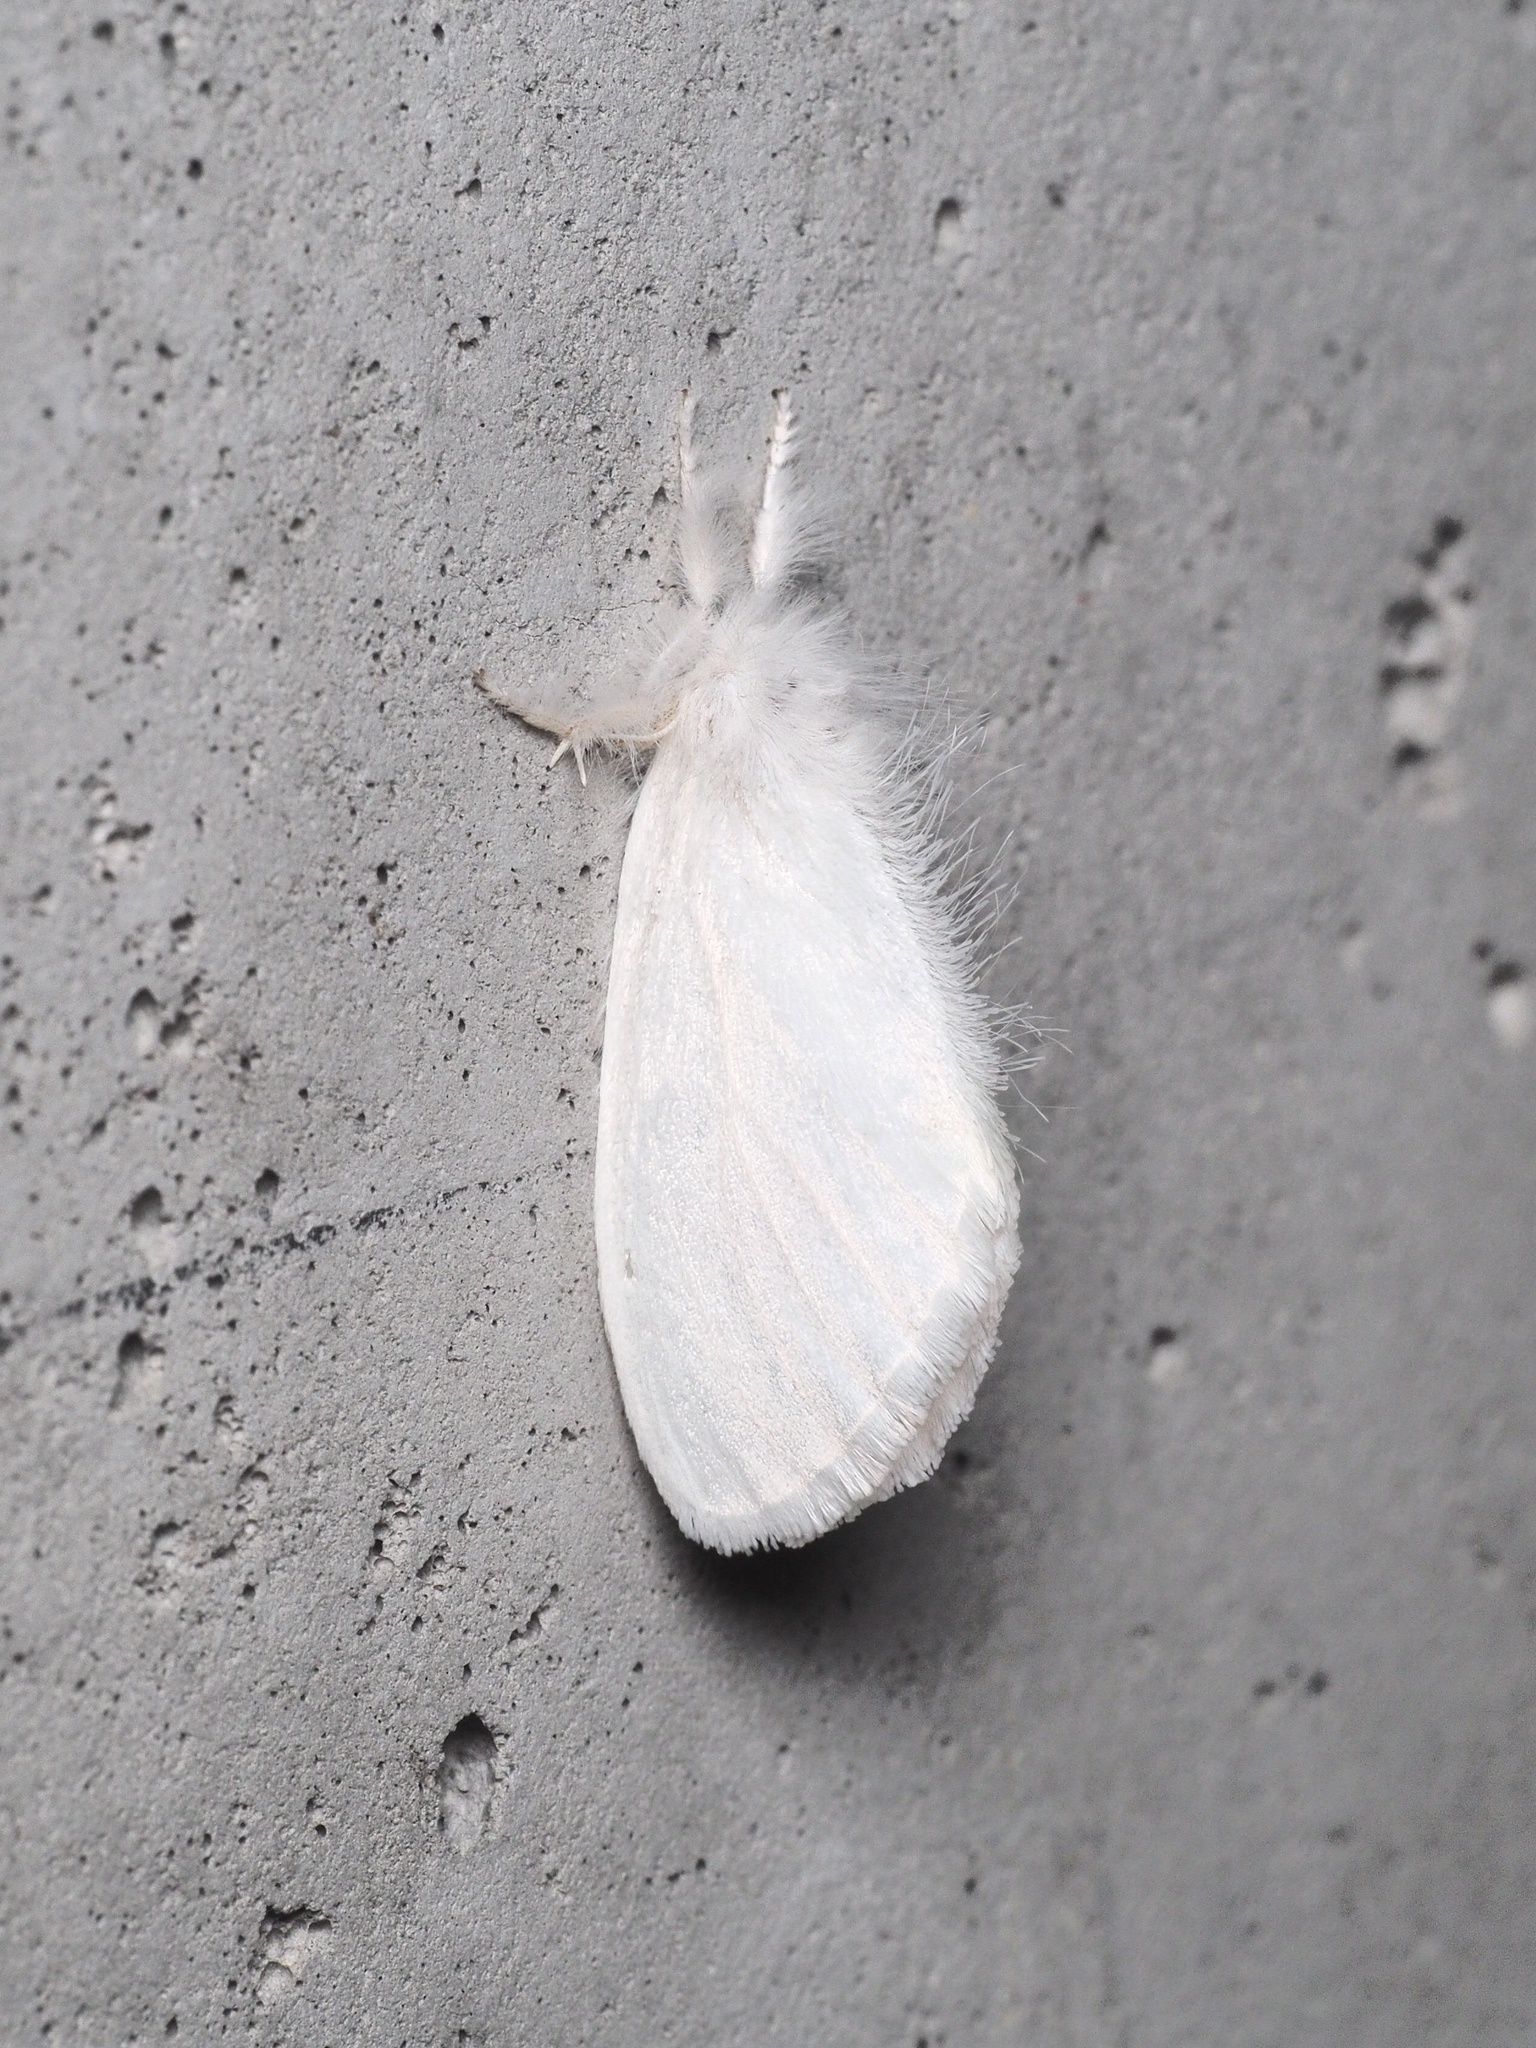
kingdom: Animalia
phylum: Arthropoda
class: Insecta
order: Lepidoptera
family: Erebidae
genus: Sphrageidus
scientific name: Sphrageidus similis
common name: Yellow-tail
